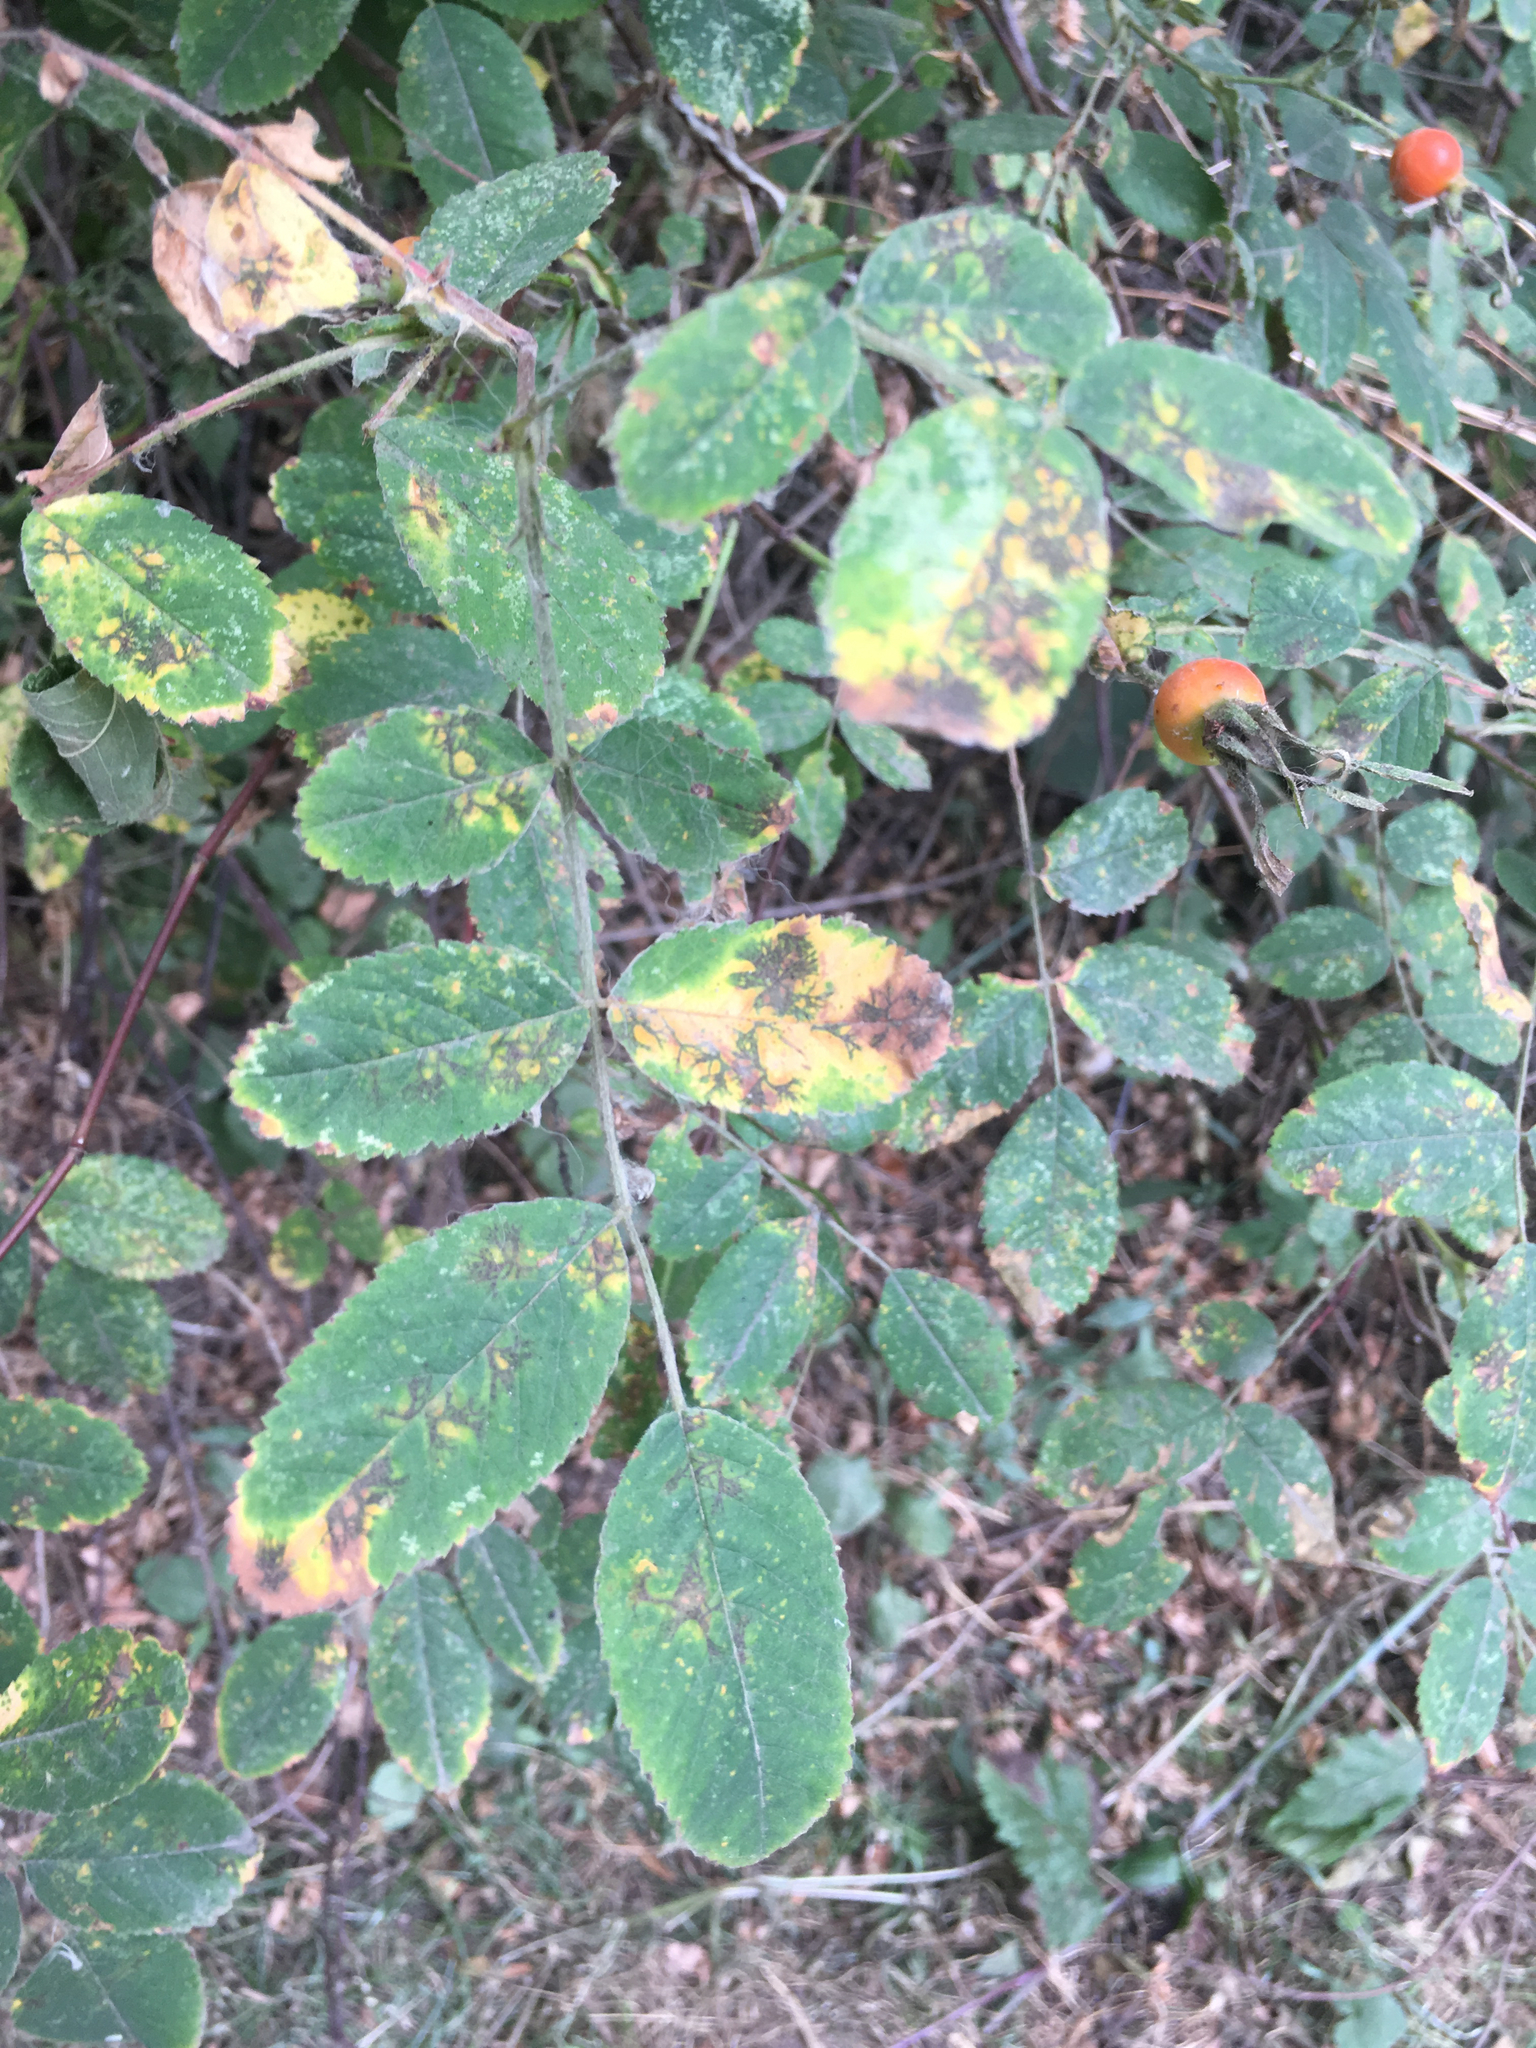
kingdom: Plantae
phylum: Tracheophyta
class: Magnoliopsida
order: Rosales
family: Rosaceae
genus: Rosa
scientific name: Rosa nutkana
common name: Nootka rose
